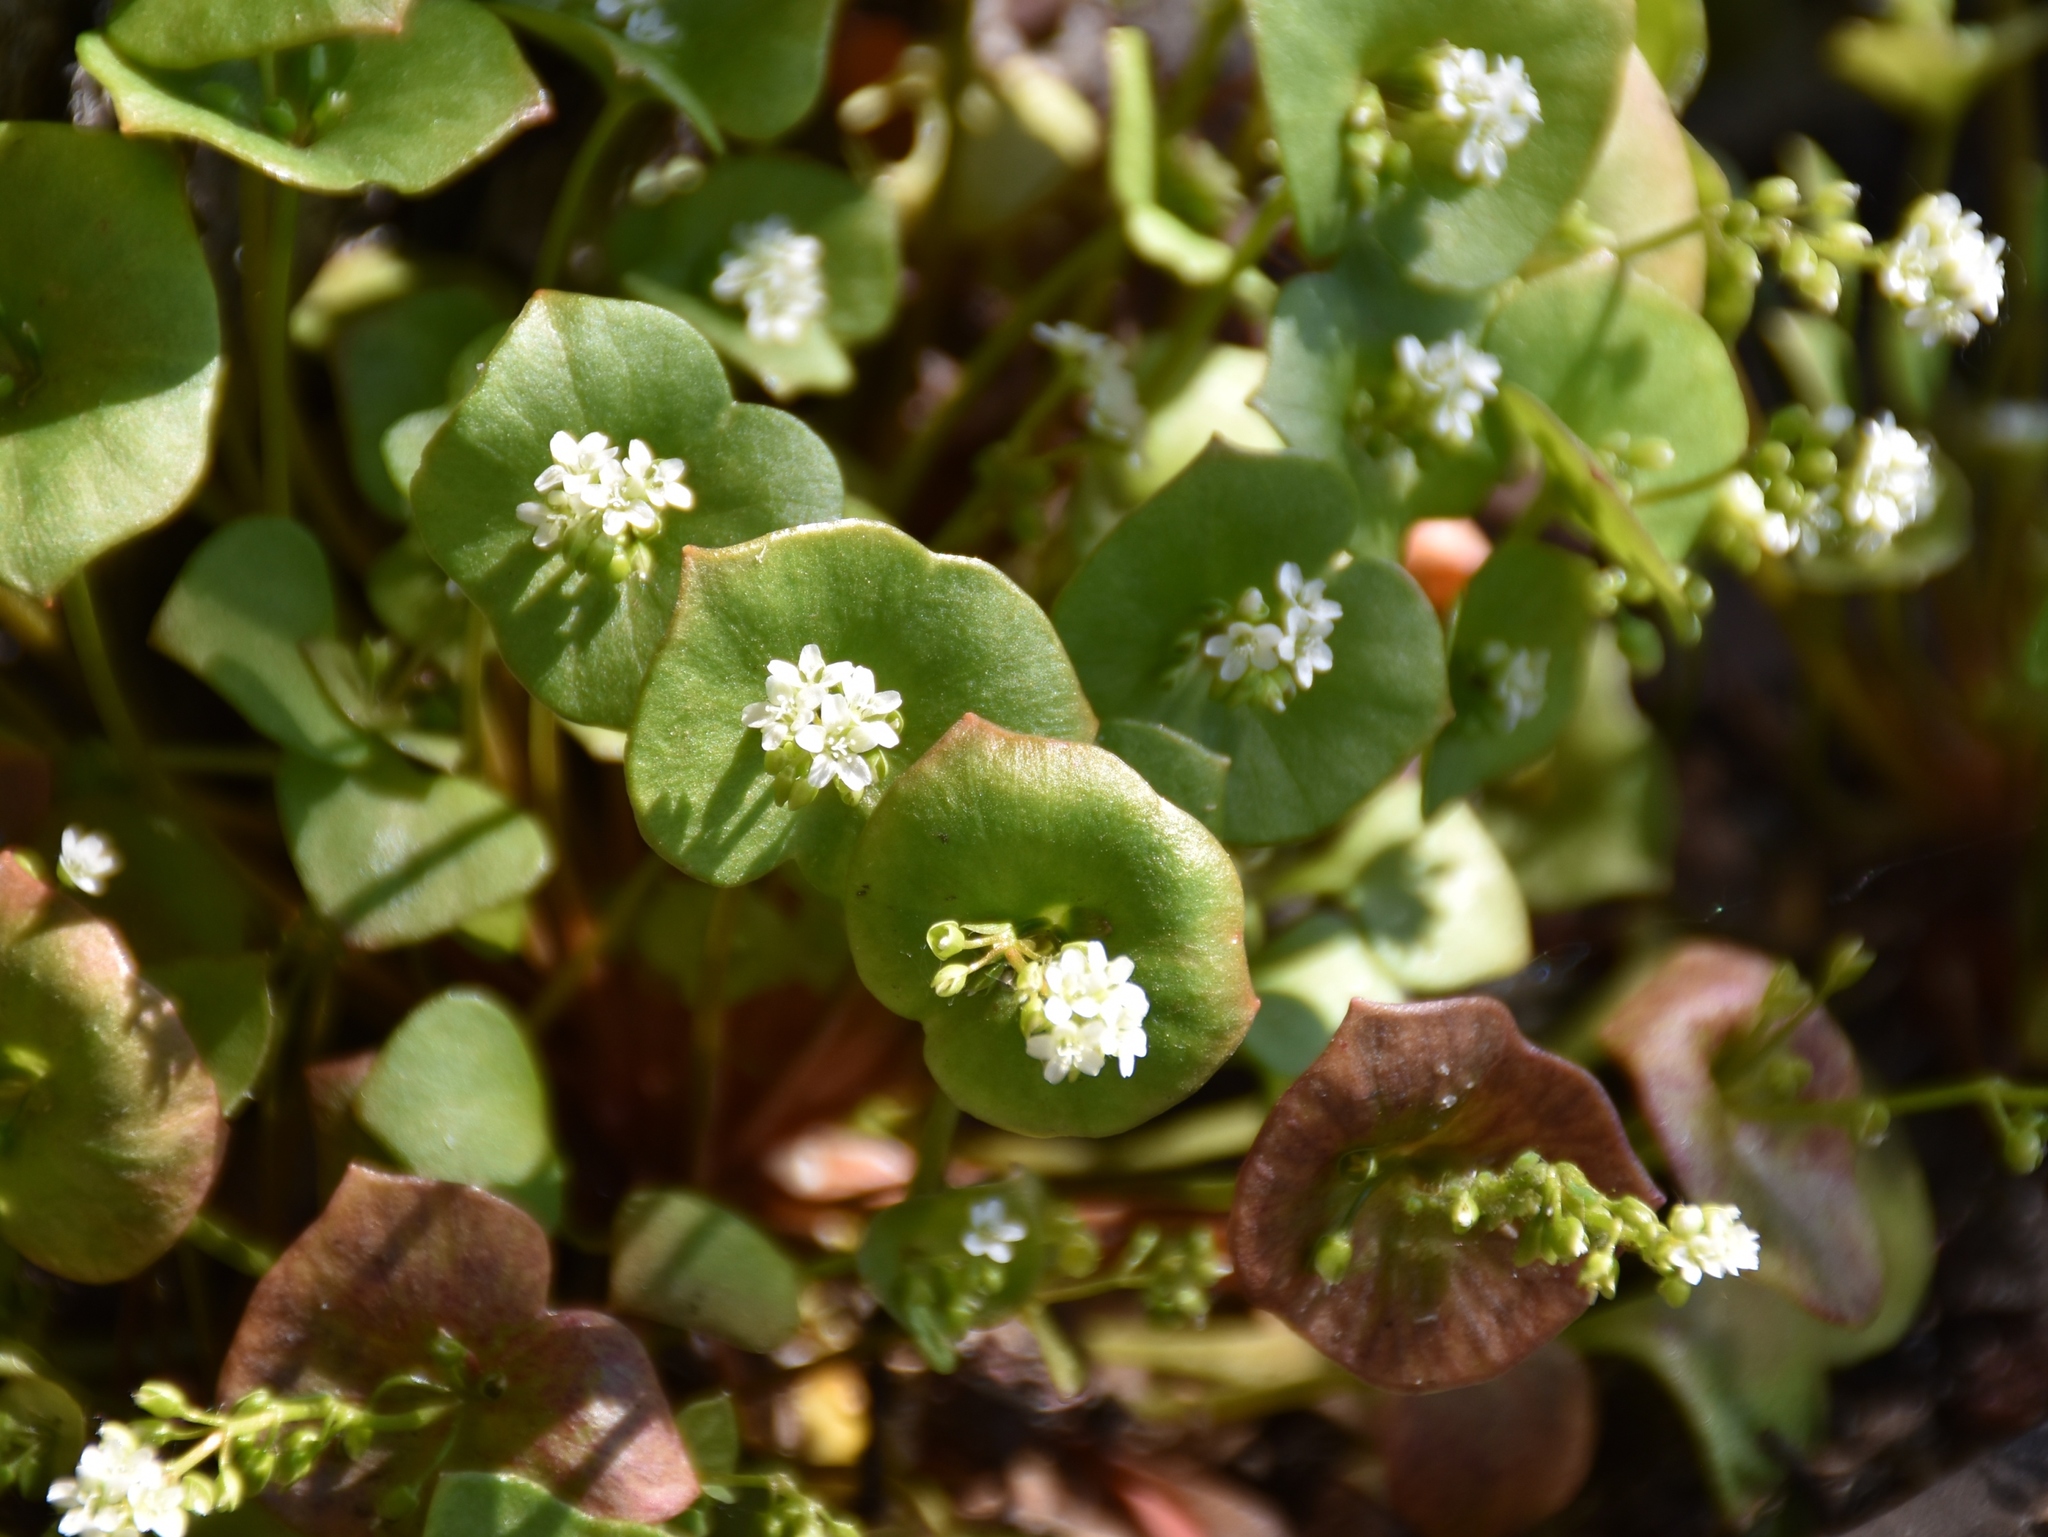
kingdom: Plantae
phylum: Tracheophyta
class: Magnoliopsida
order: Caryophyllales
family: Montiaceae
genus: Claytonia
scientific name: Claytonia perfoliata
